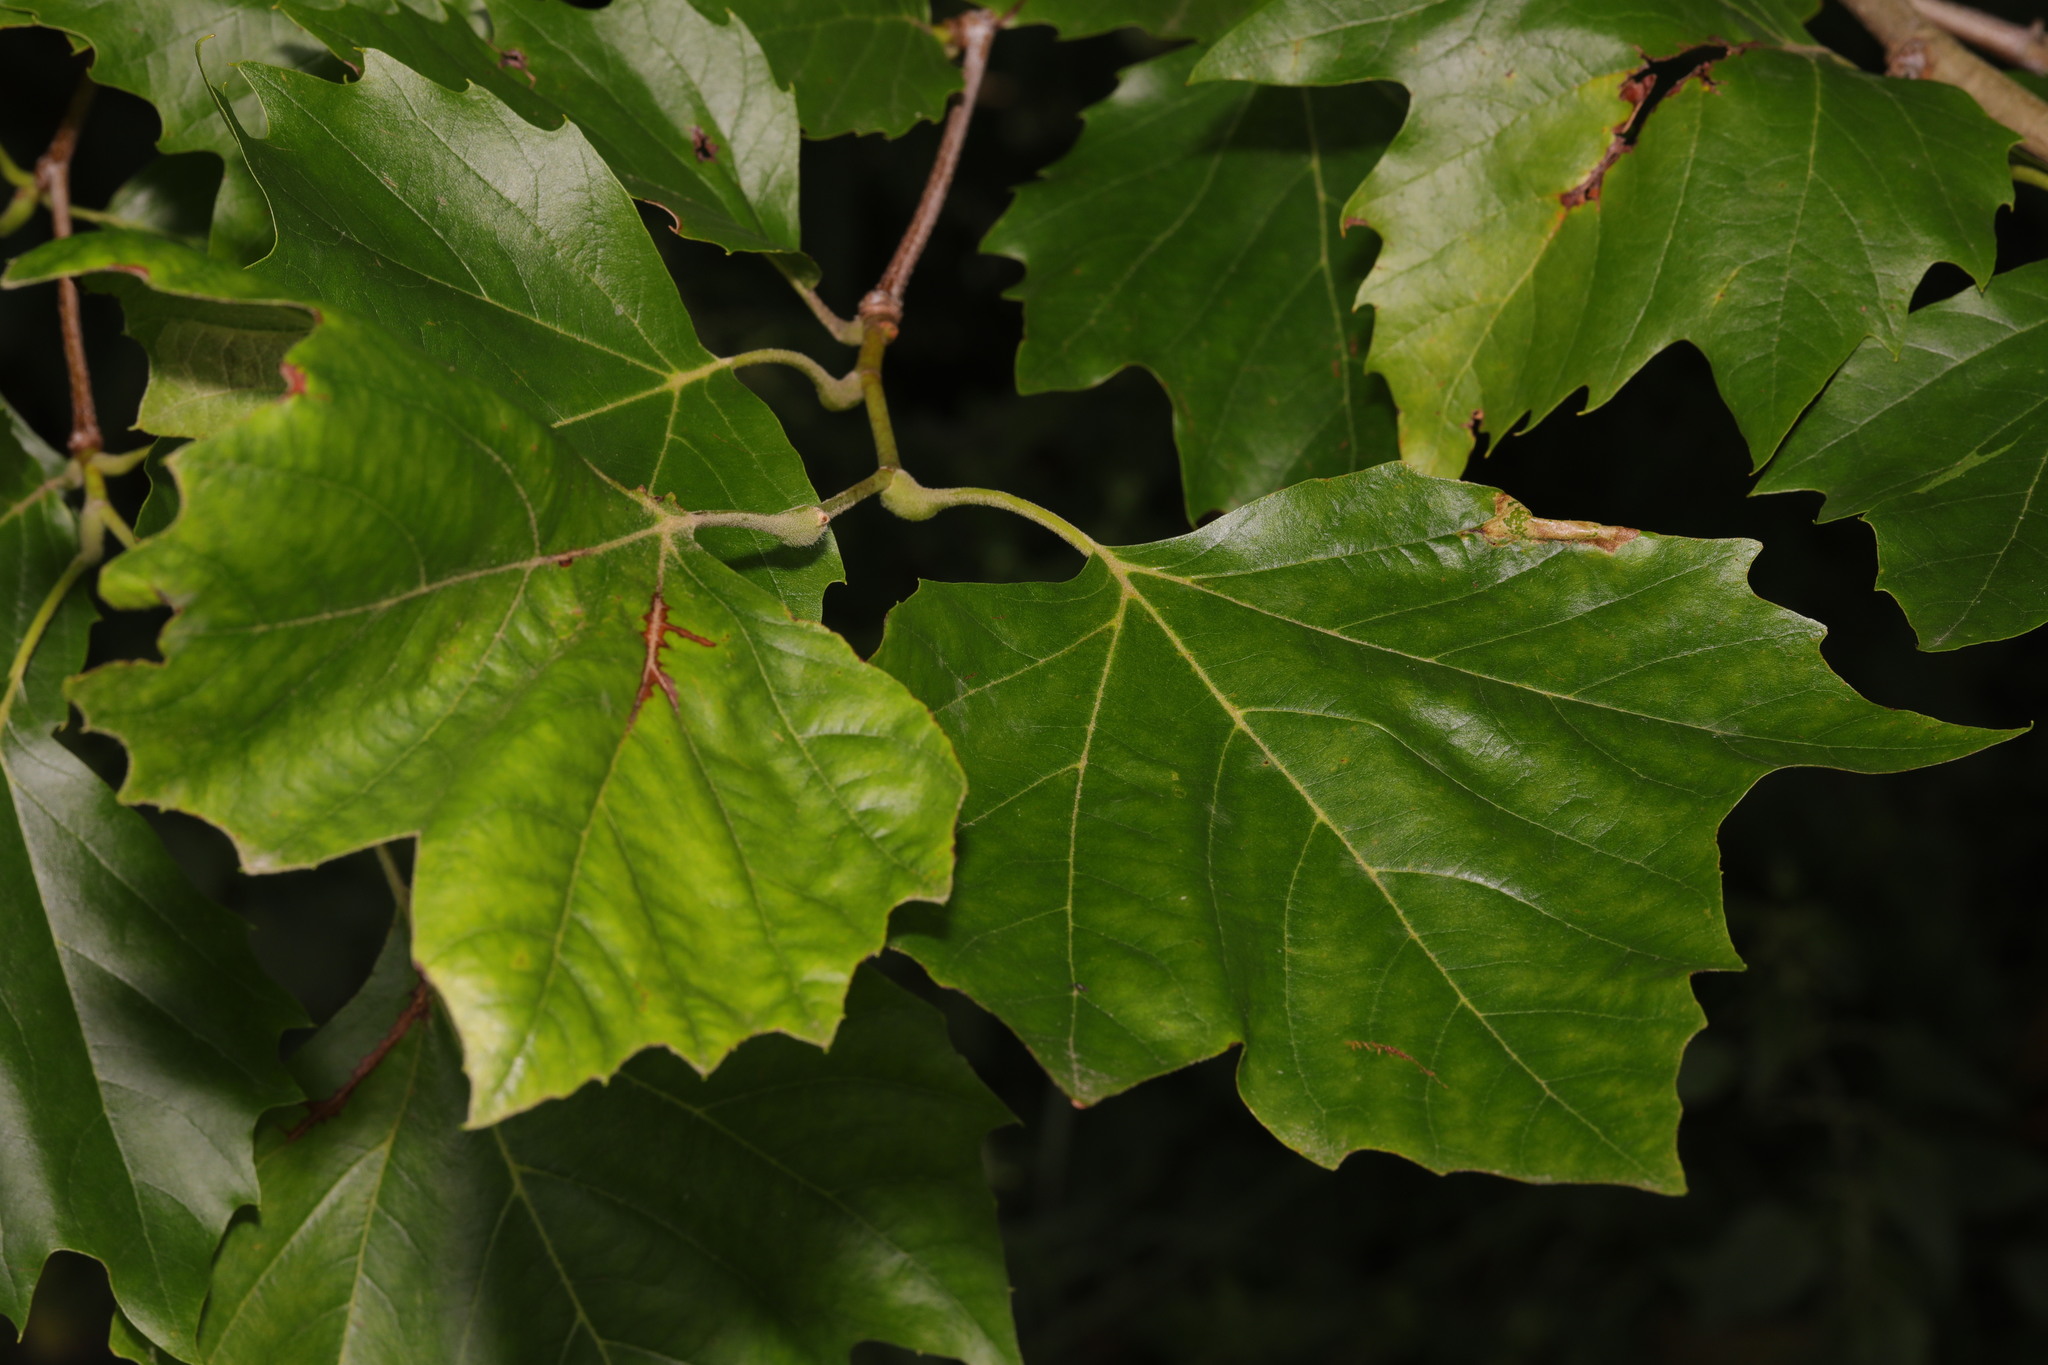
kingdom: Plantae
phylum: Tracheophyta
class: Magnoliopsida
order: Proteales
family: Platanaceae
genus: Platanus
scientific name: Platanus hispanica
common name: London plane
